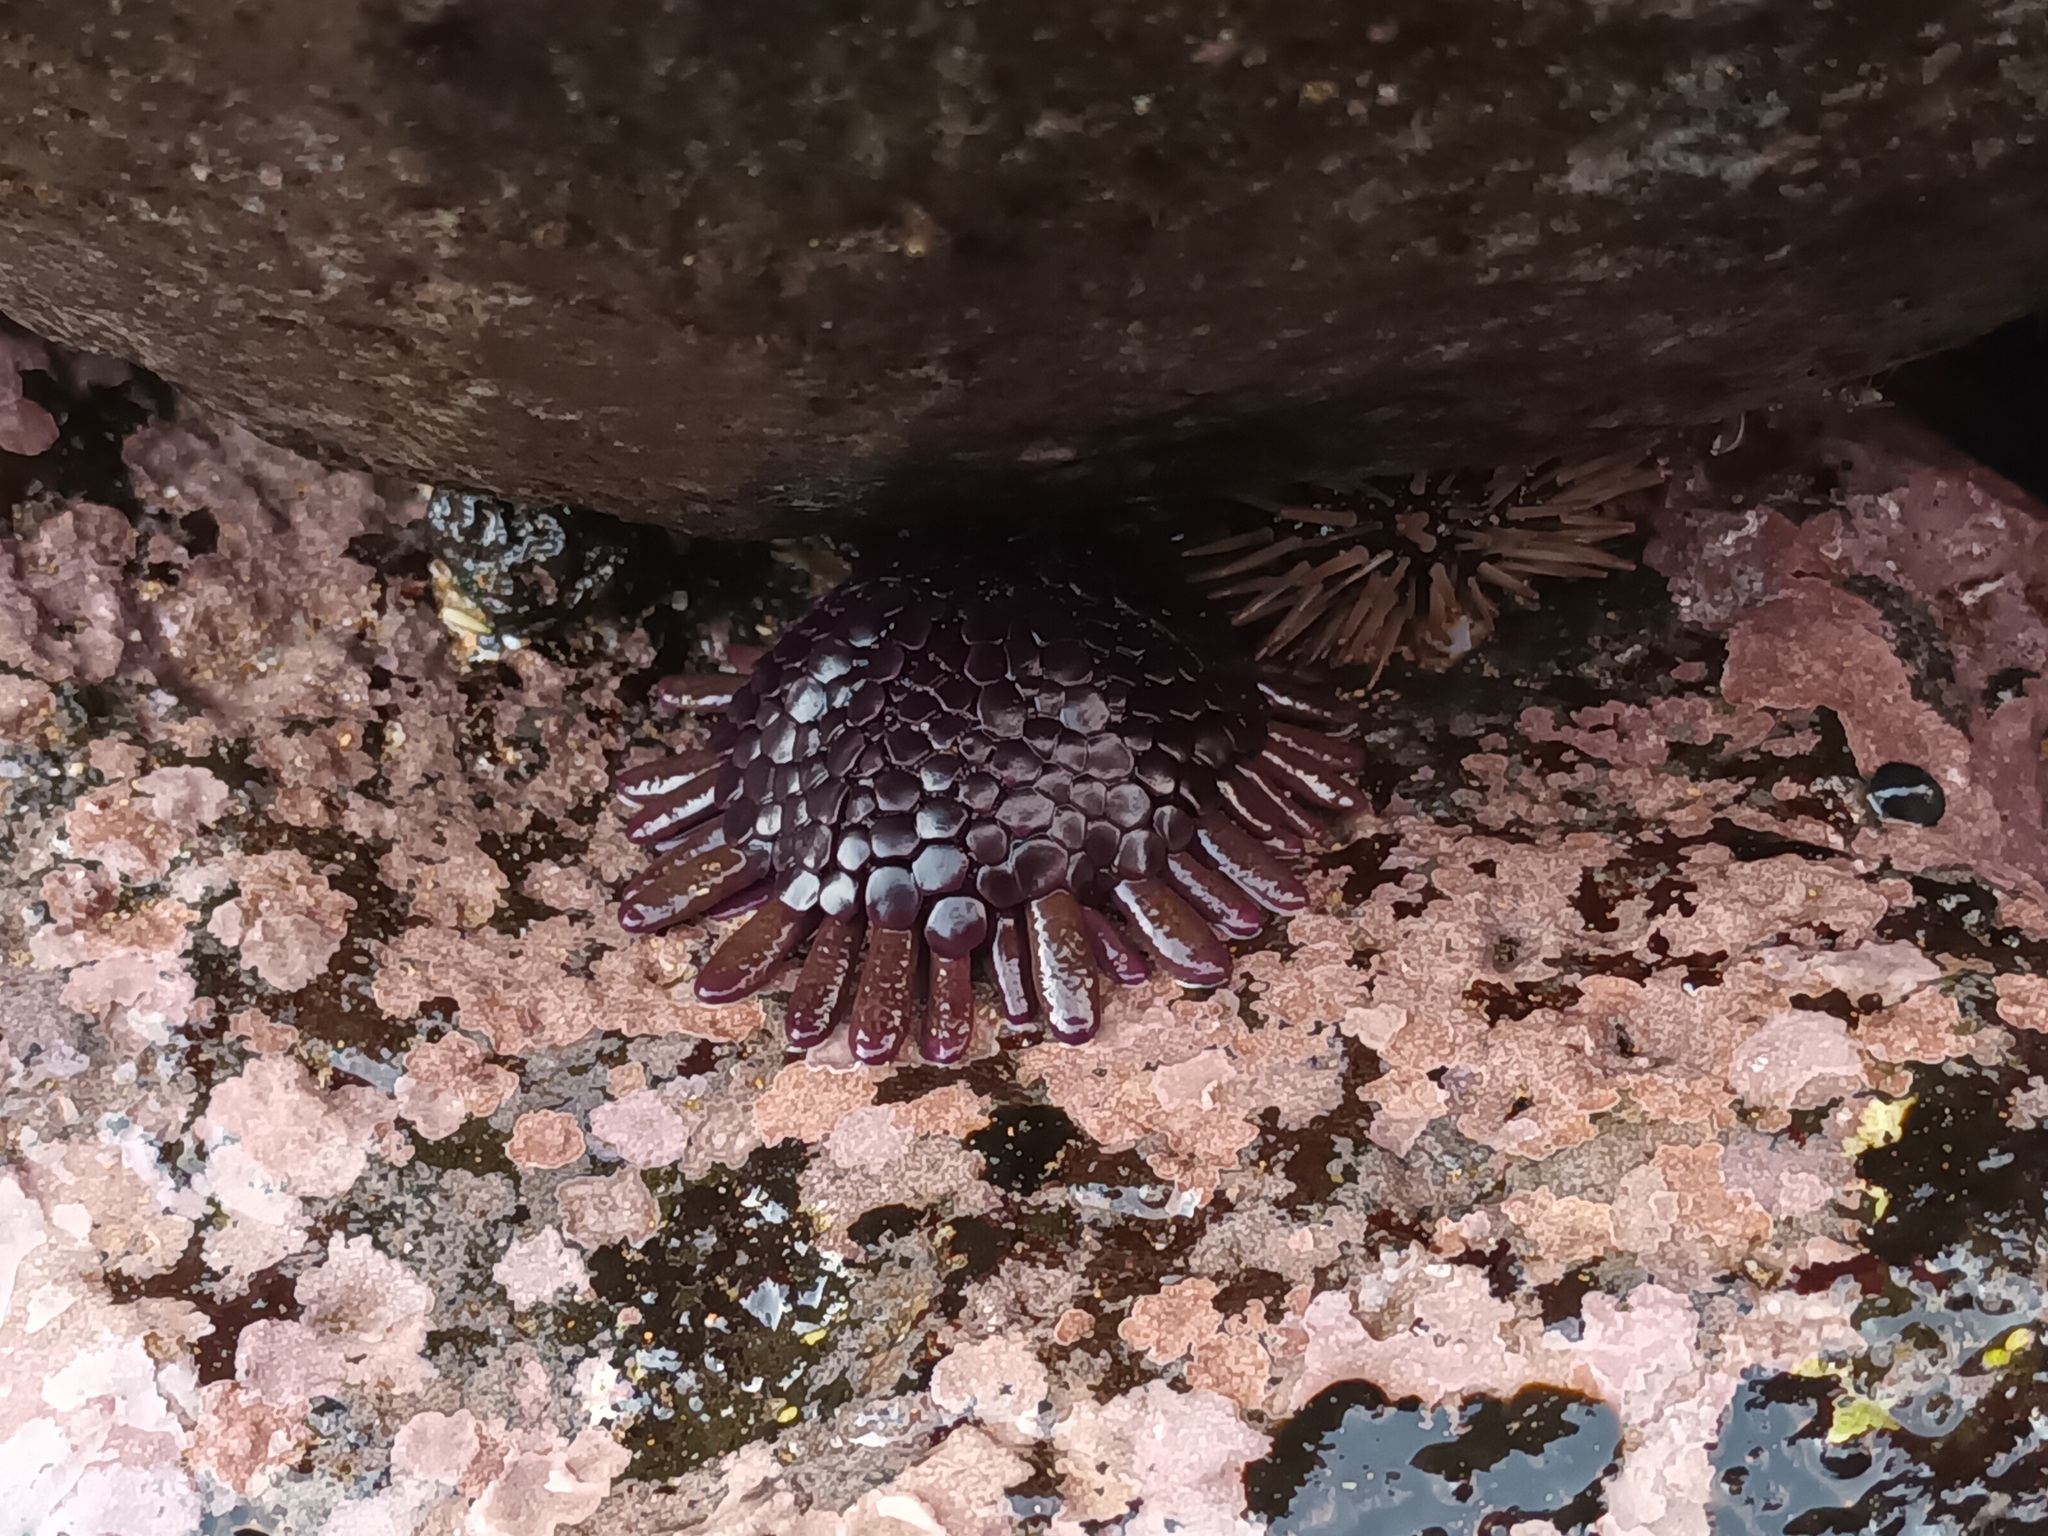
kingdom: Animalia
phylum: Echinodermata
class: Echinoidea
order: Camarodonta
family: Echinometridae
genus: Colobocentrotus
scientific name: Colobocentrotus atratus
